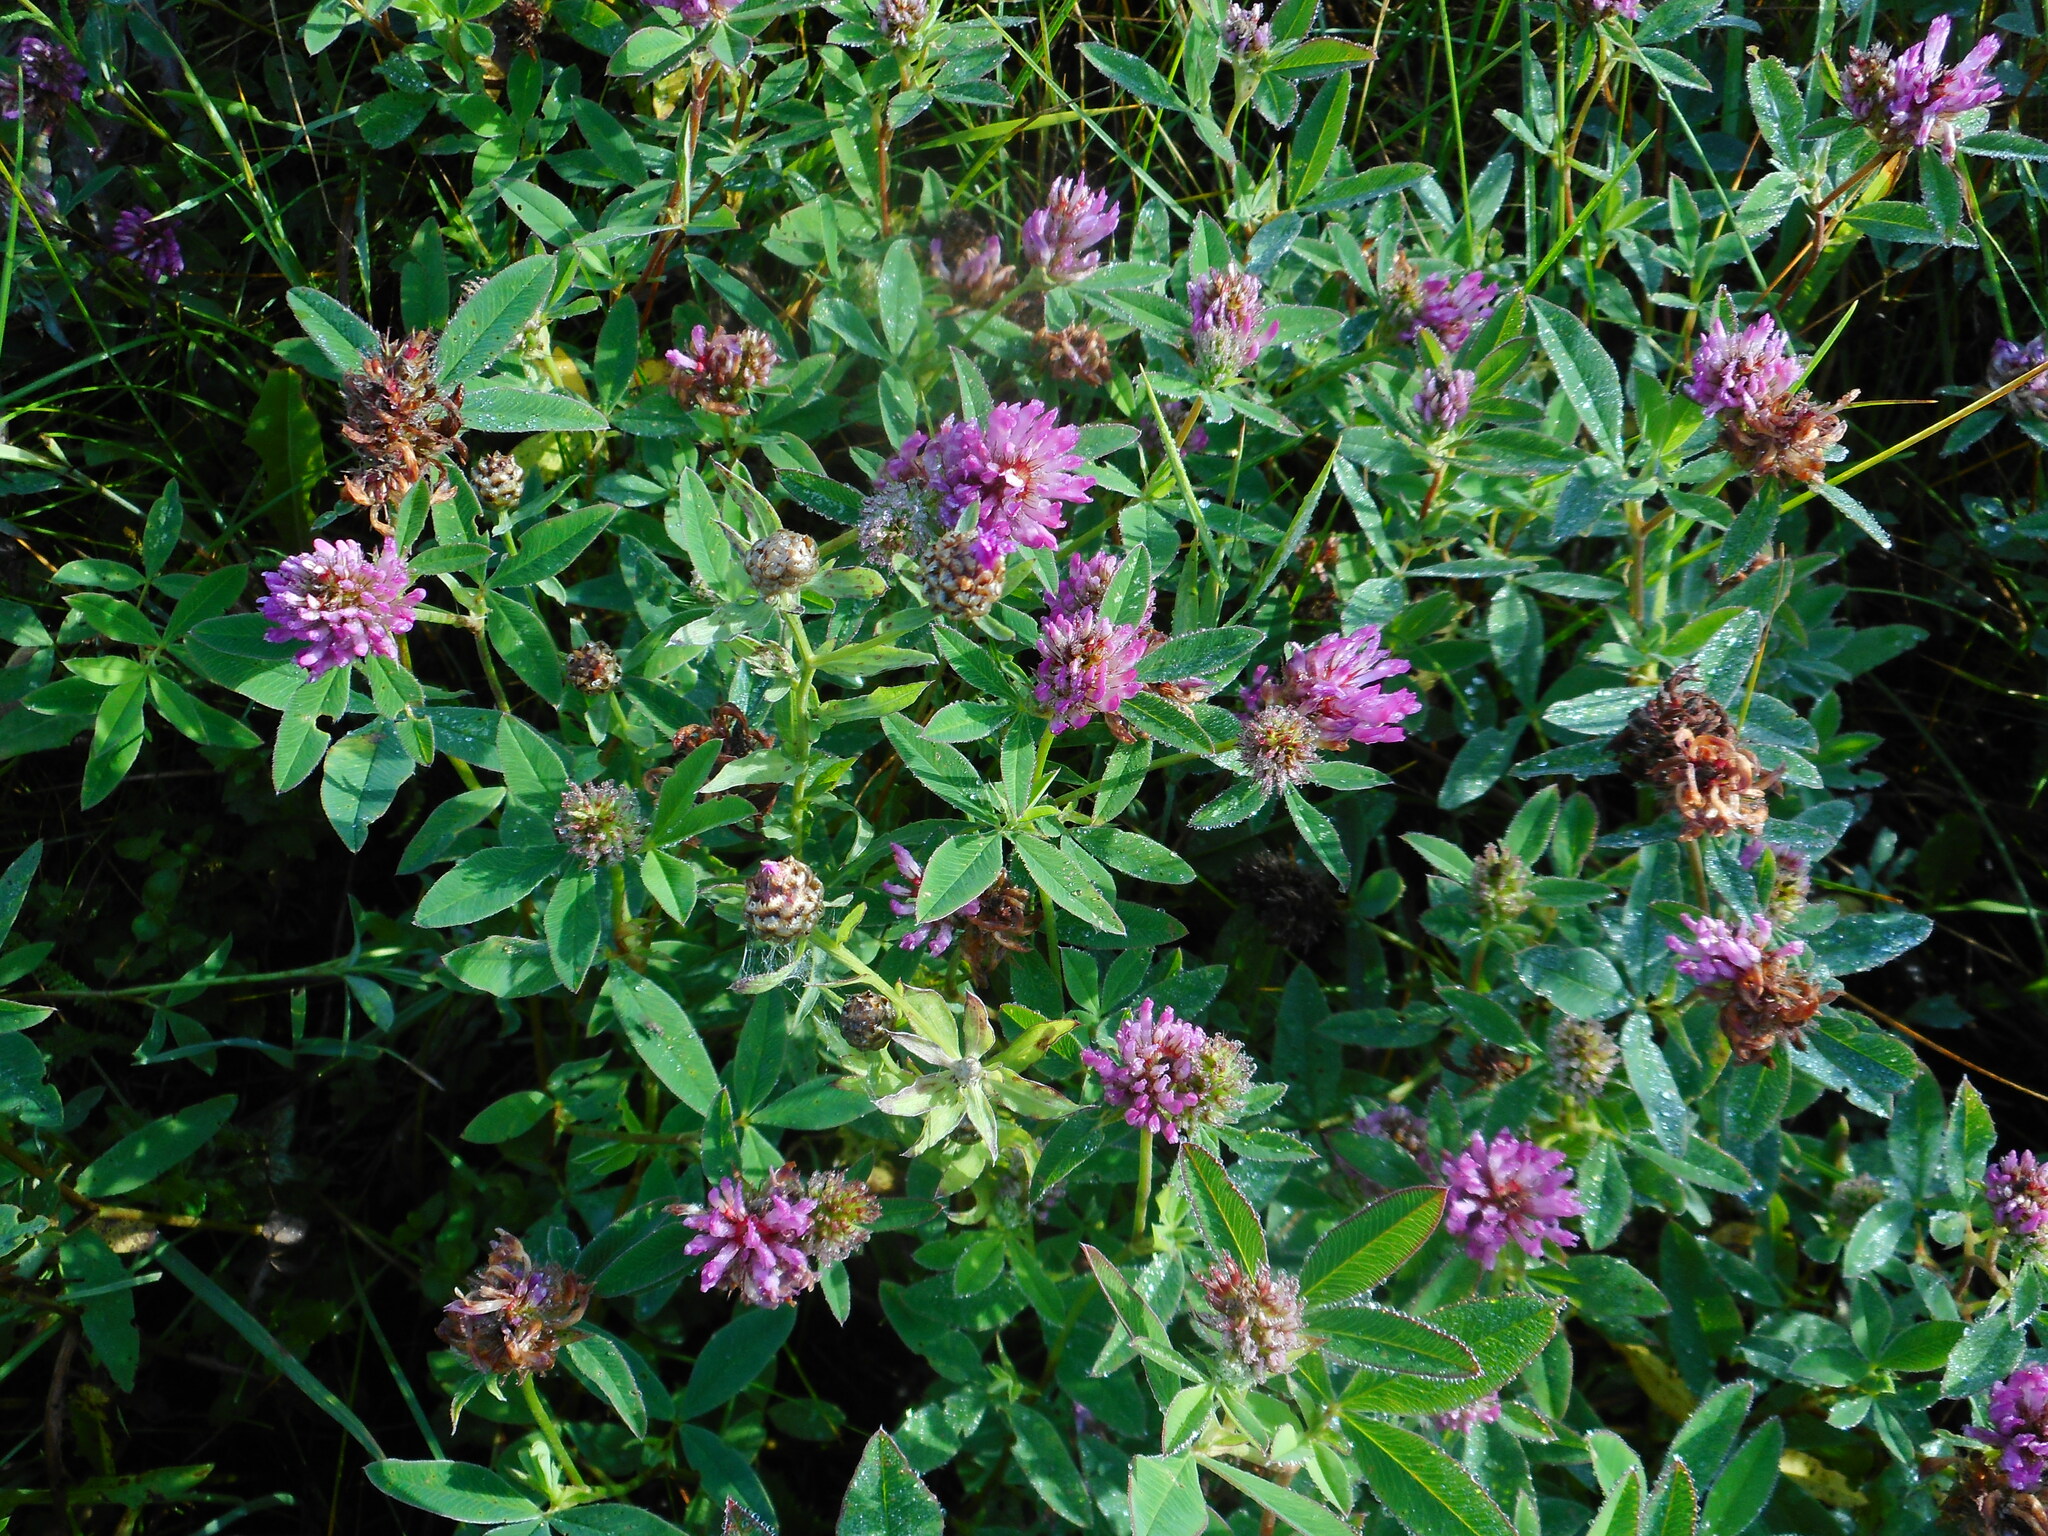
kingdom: Plantae
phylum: Tracheophyta
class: Magnoliopsida
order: Fabales
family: Fabaceae
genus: Trifolium
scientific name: Trifolium medium
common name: Zigzag clover
